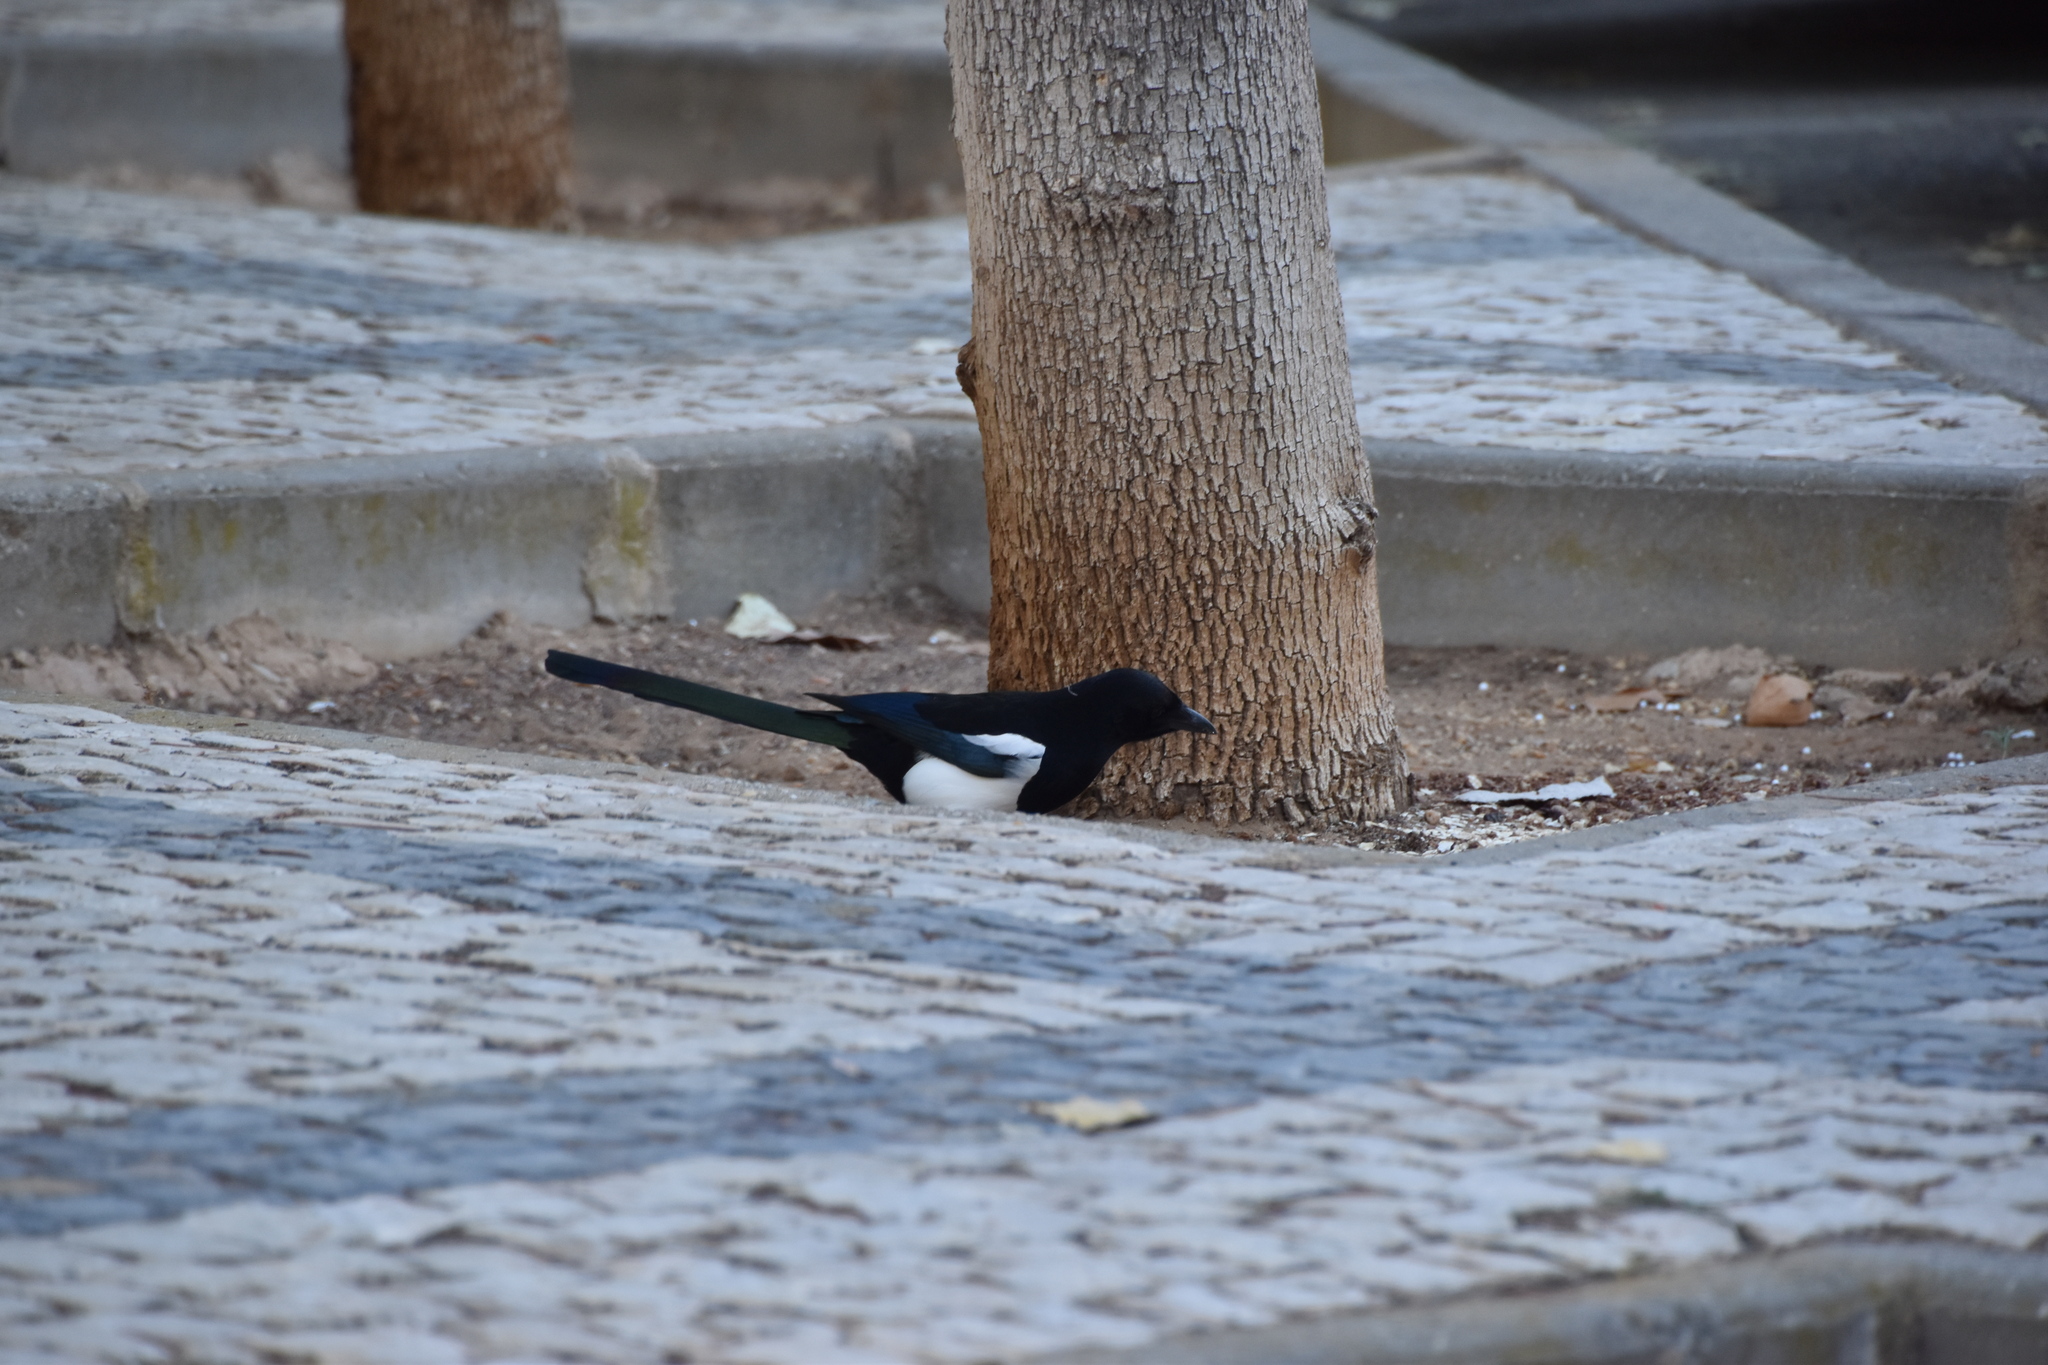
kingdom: Animalia
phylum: Chordata
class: Aves
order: Passeriformes
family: Corvidae
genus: Pica
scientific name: Pica pica
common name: Eurasian magpie
